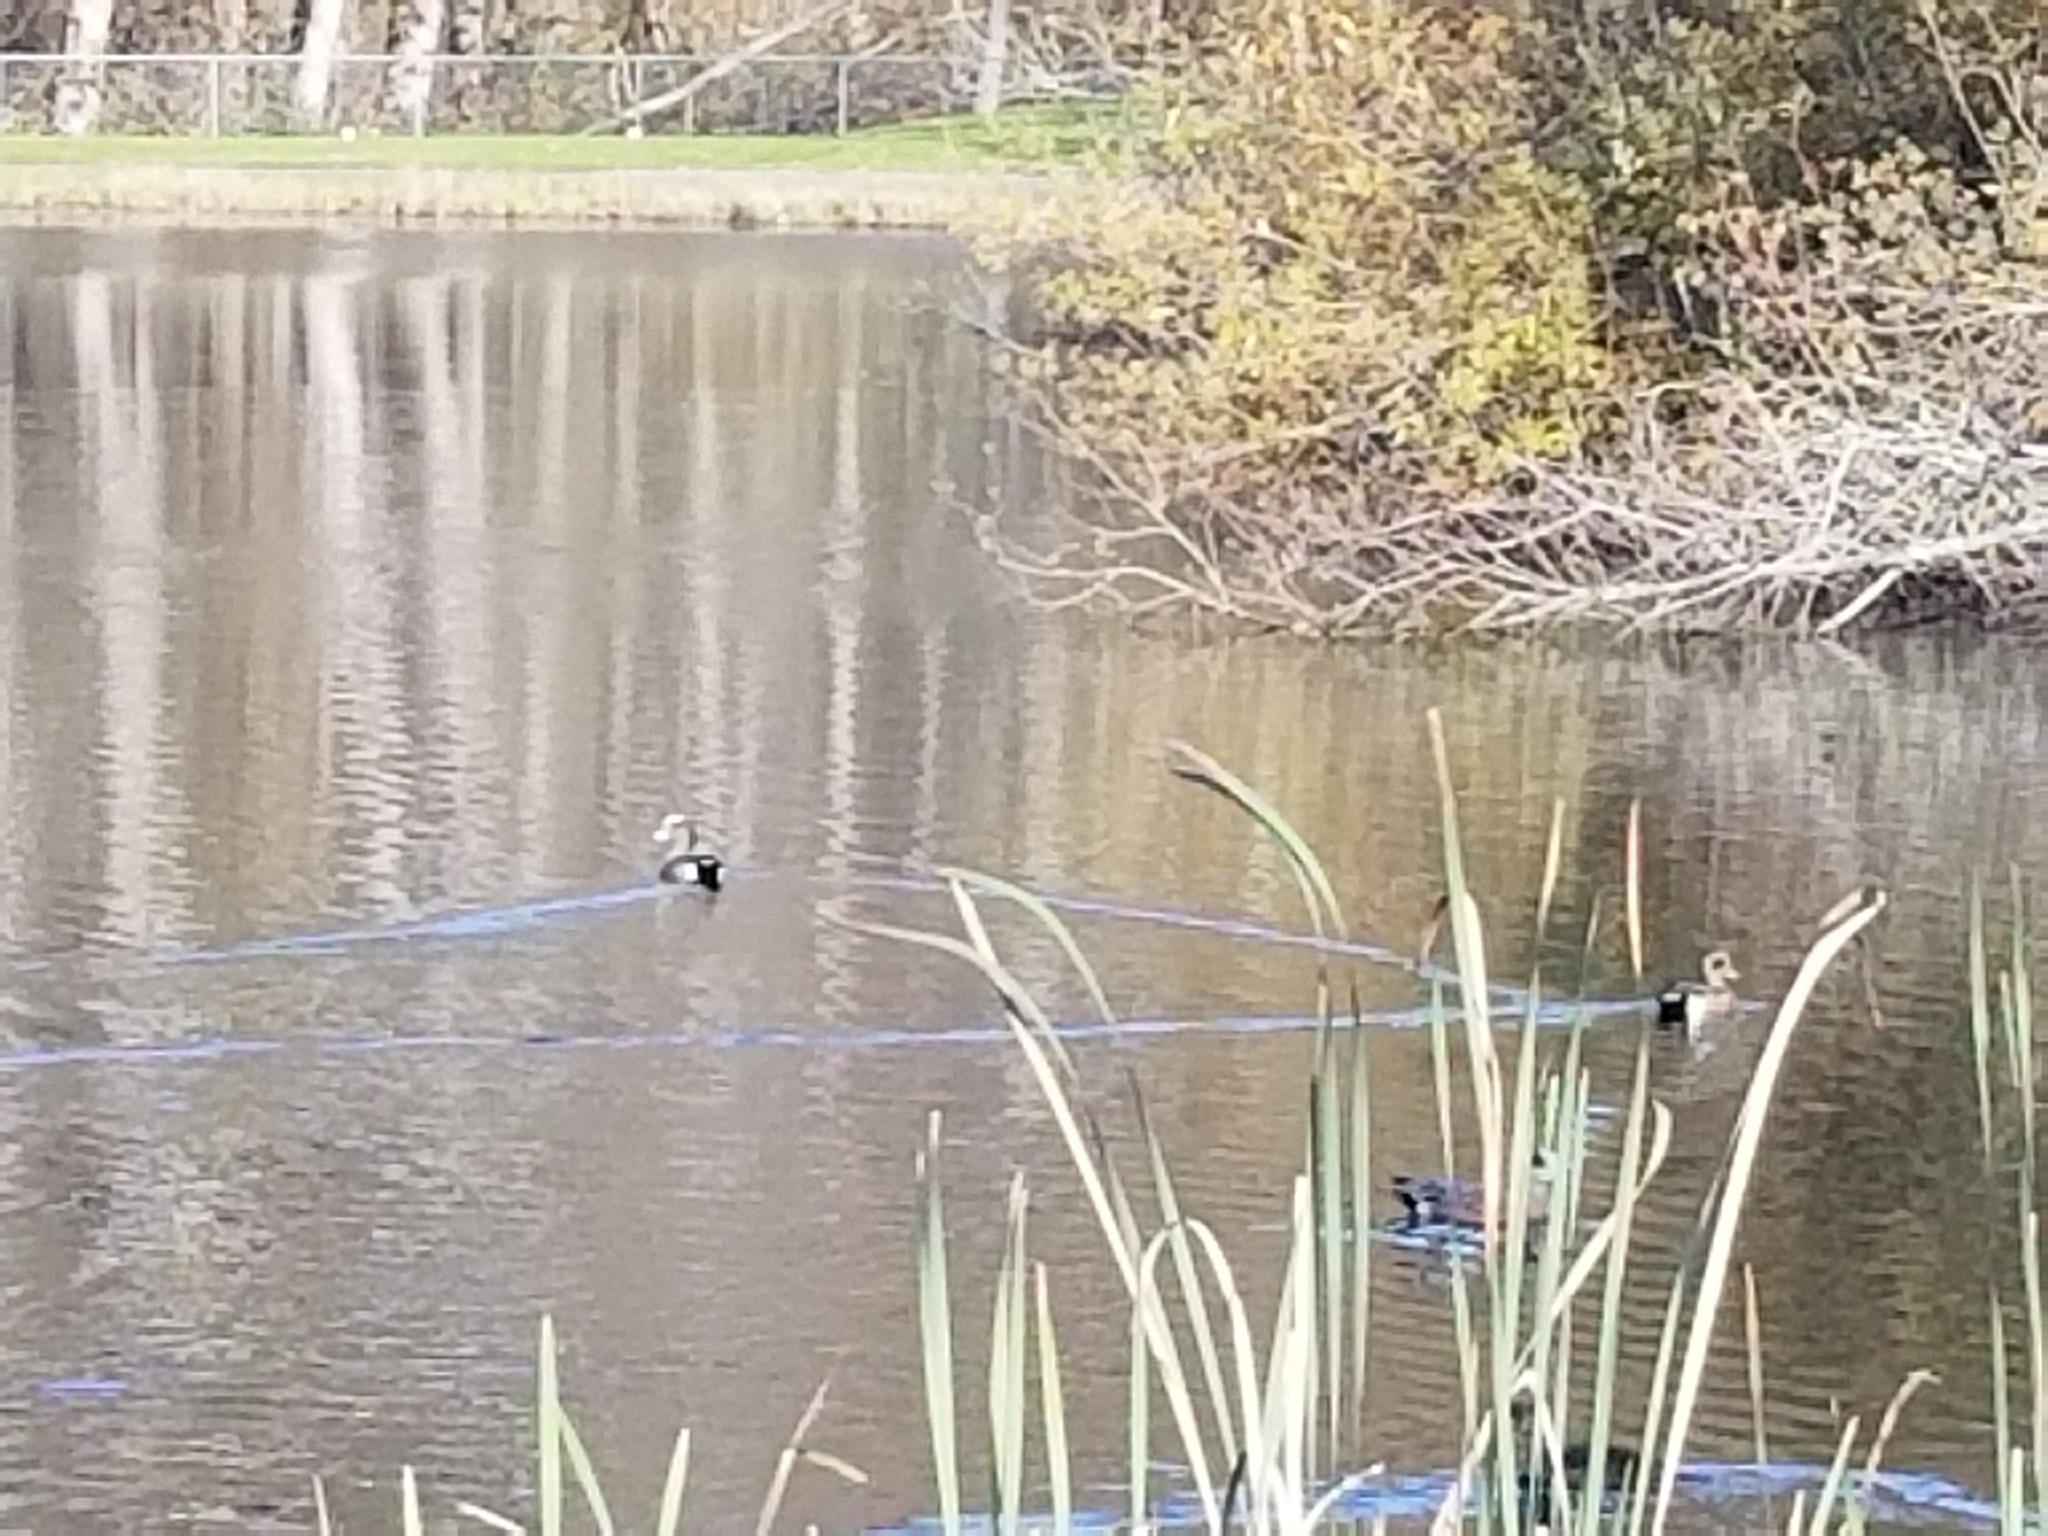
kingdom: Animalia
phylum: Chordata
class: Aves
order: Anseriformes
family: Anatidae
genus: Mareca
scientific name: Mareca americana
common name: American wigeon
